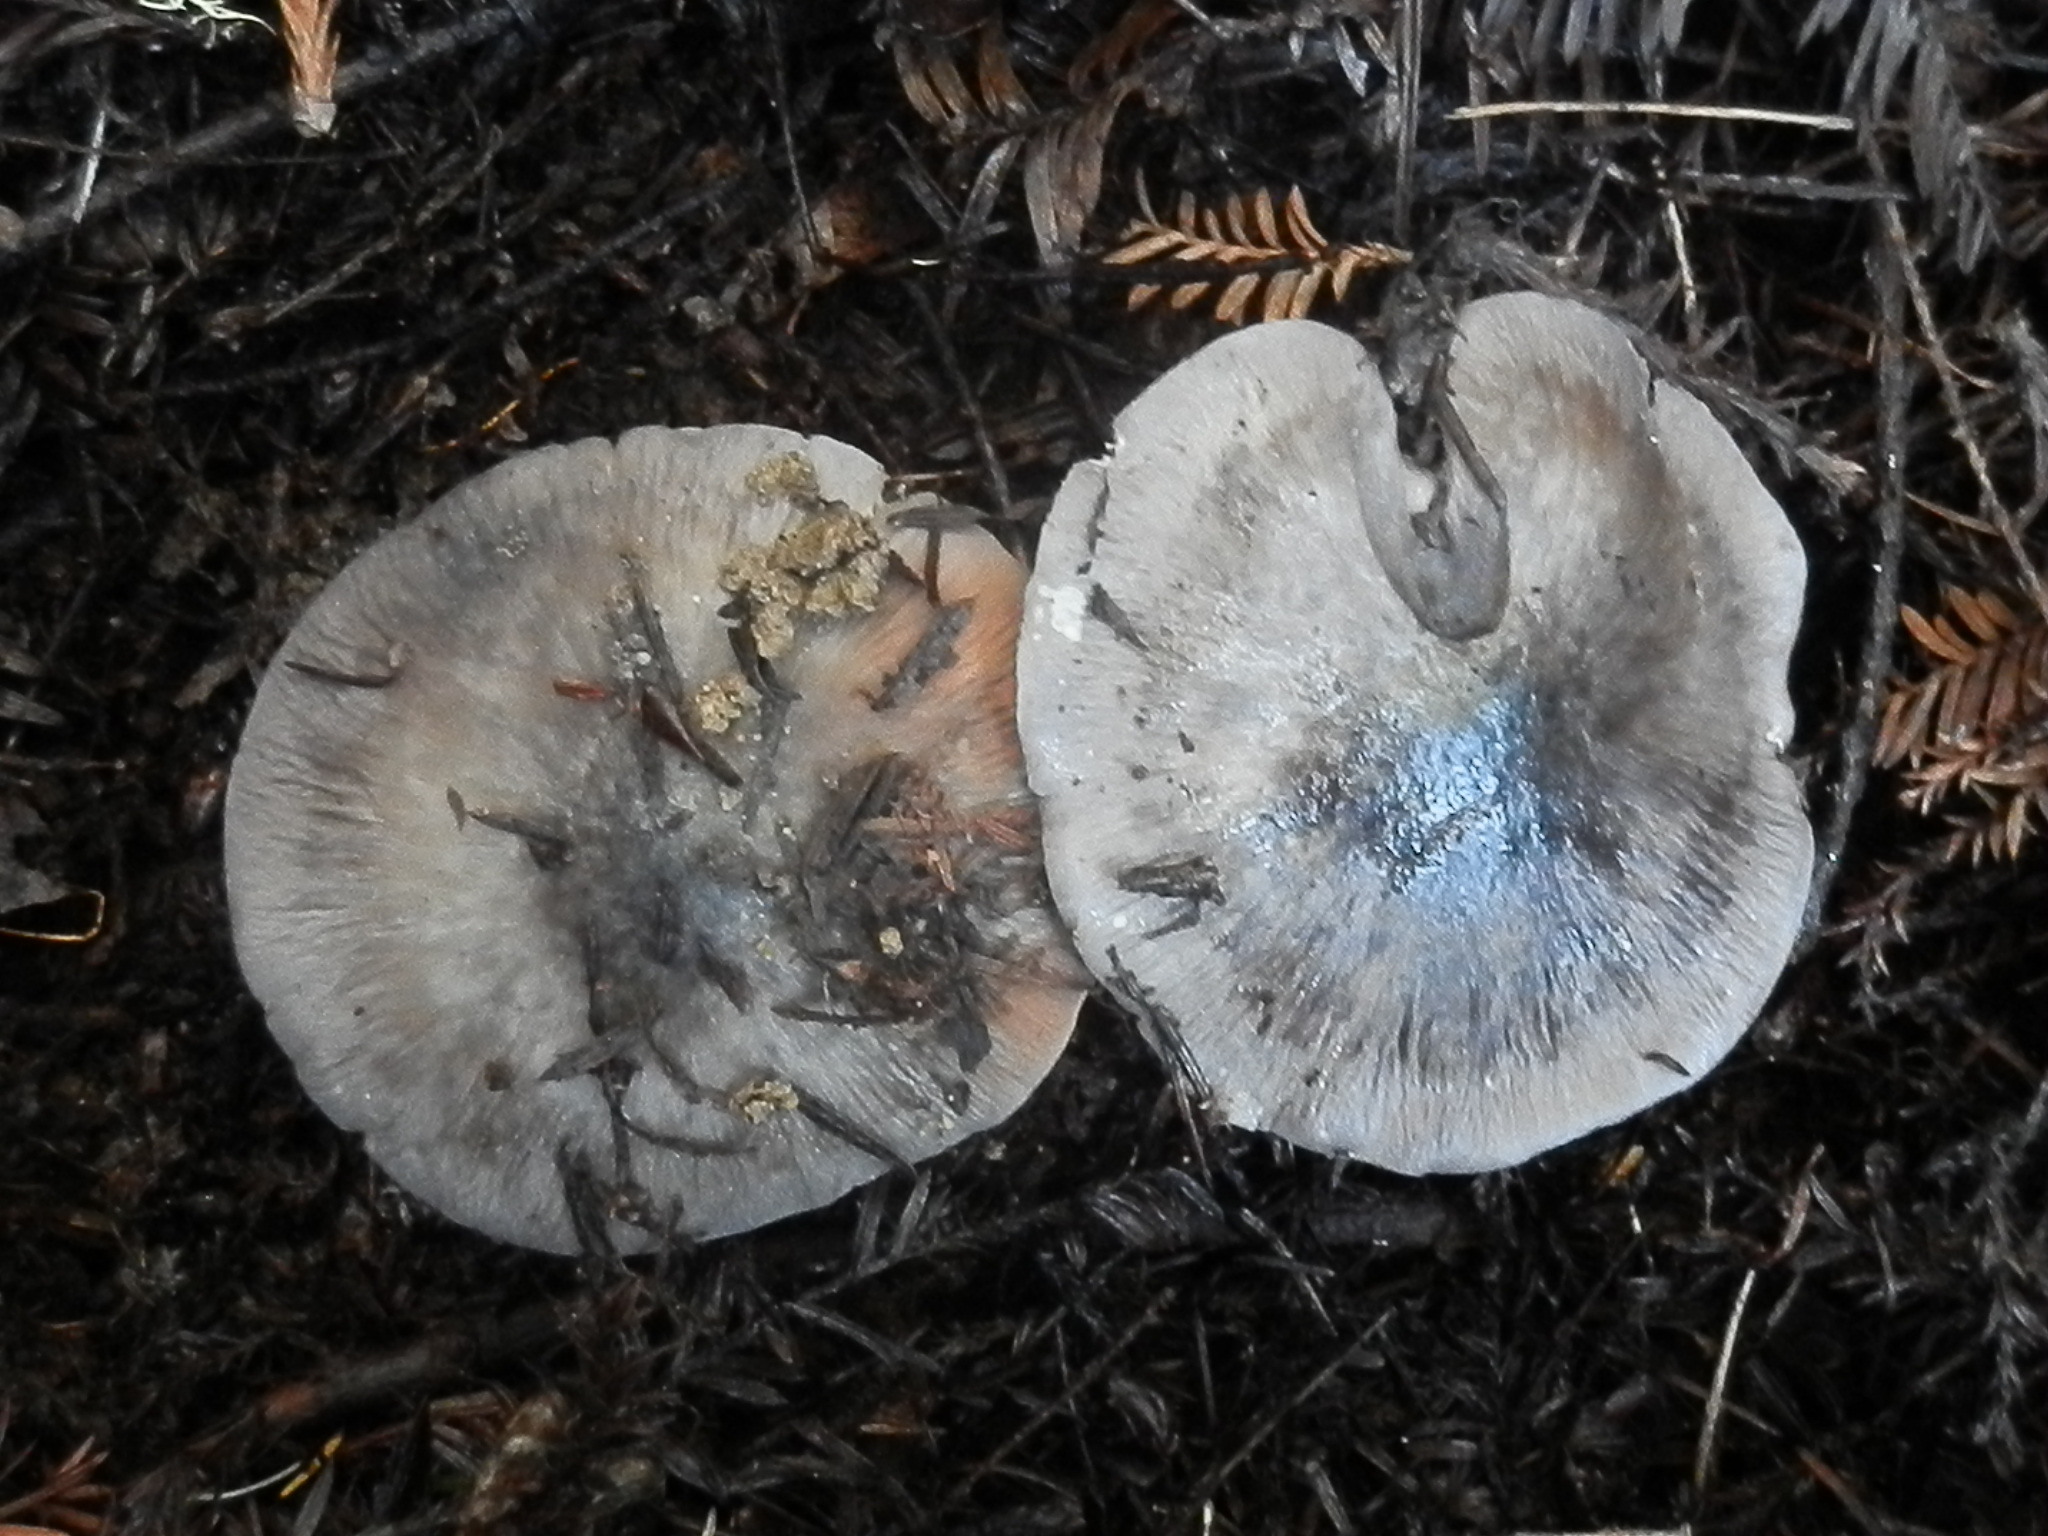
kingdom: Fungi
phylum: Basidiomycota
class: Agaricomycetes
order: Agaricales
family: Entolomataceae
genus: Entoloma
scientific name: Entoloma medianox
